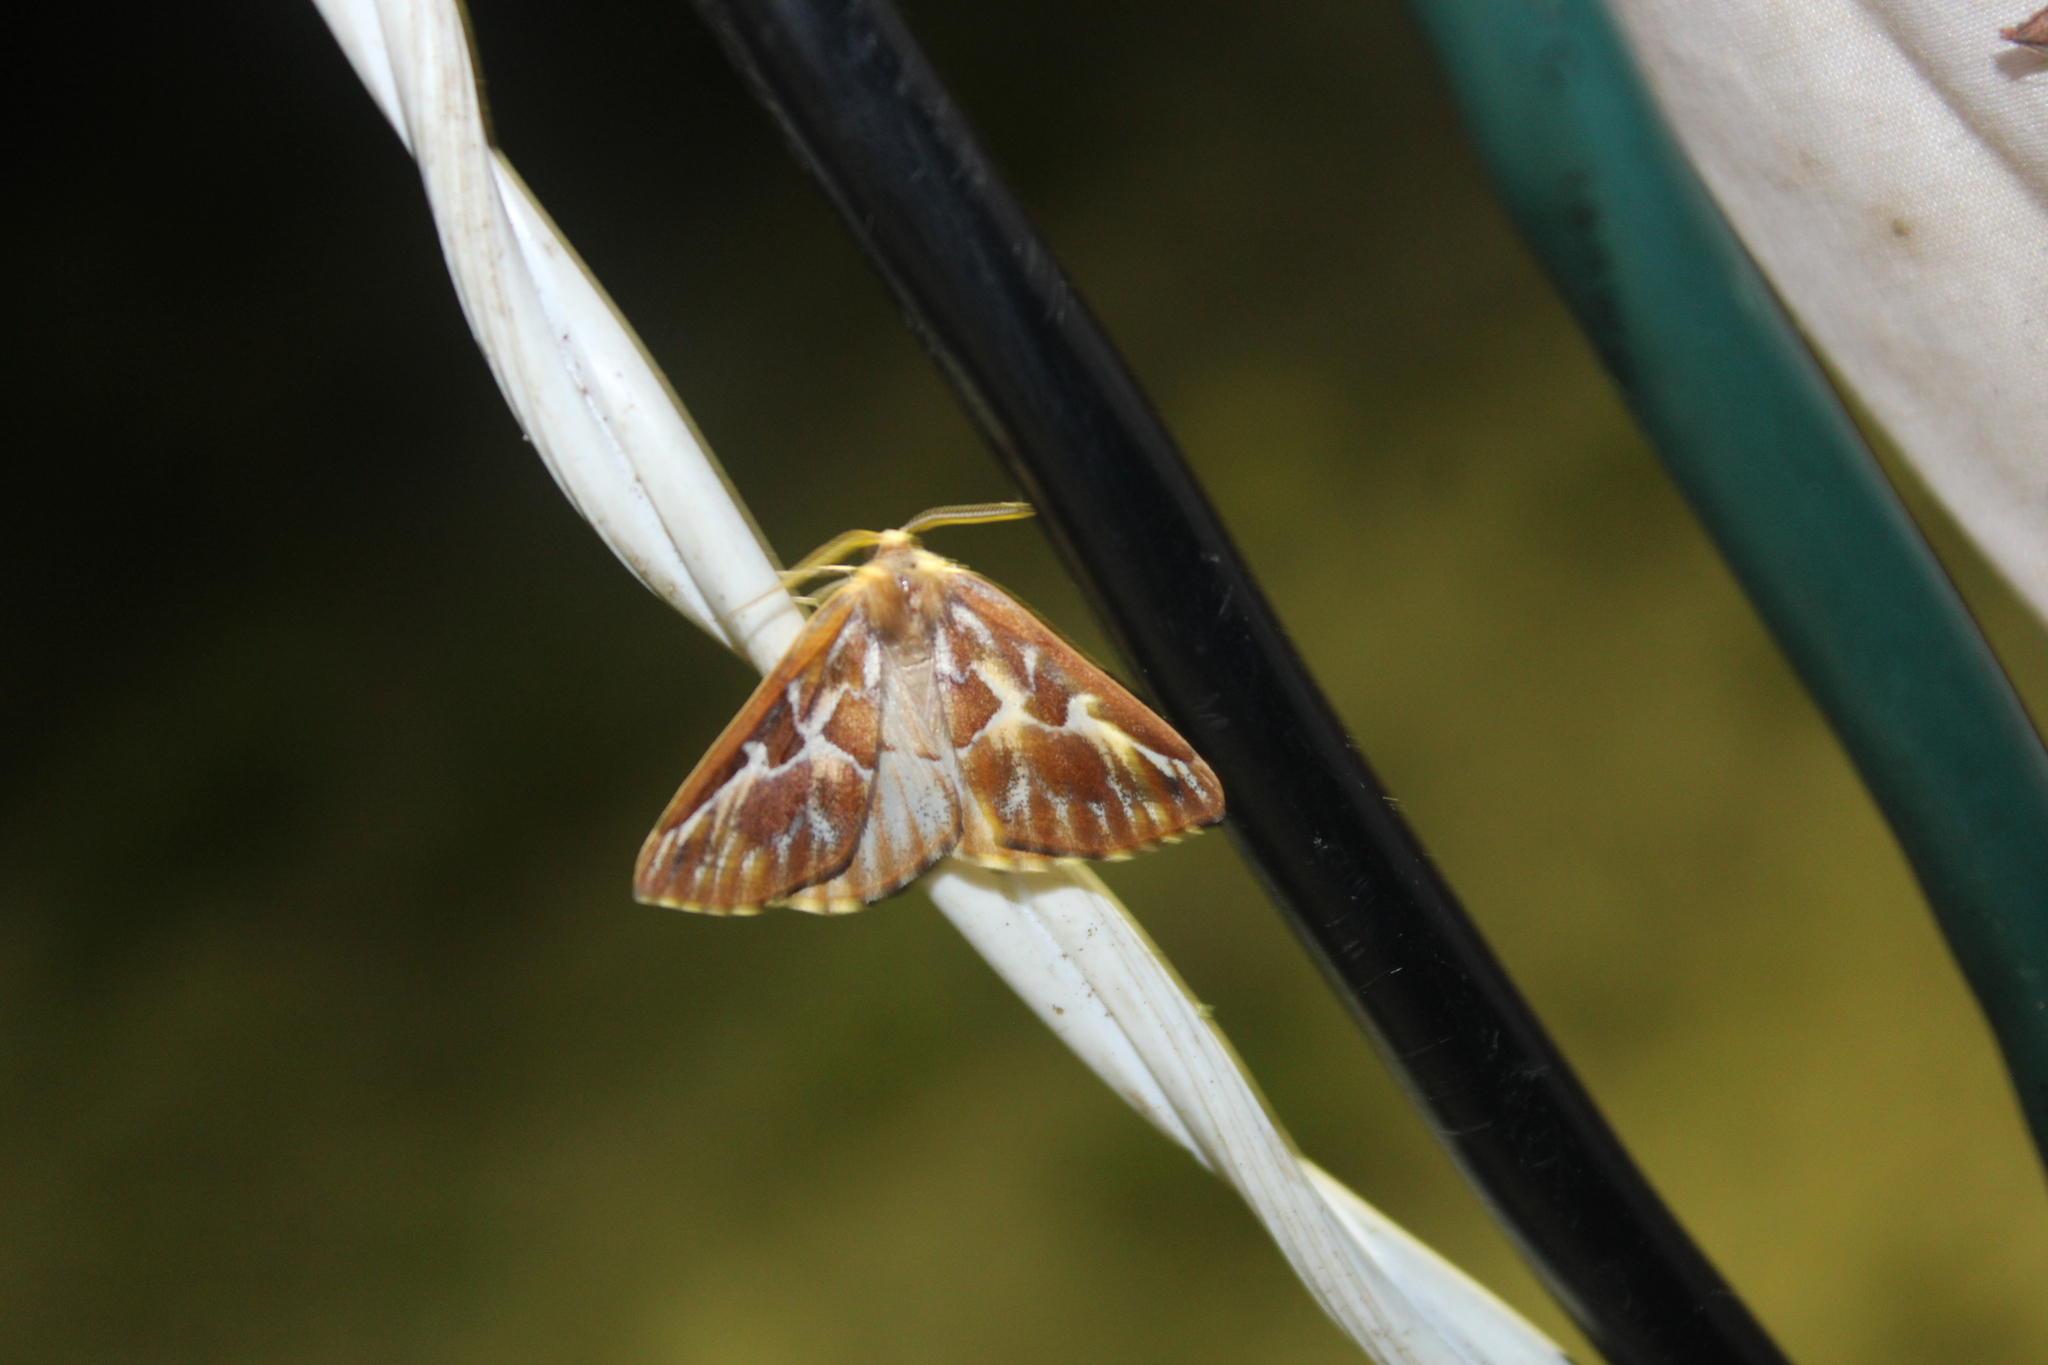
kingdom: Animalia
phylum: Arthropoda
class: Insecta
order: Lepidoptera
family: Geometridae
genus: Caripeta
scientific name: Caripeta piniata
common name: Northern pine looper moth
